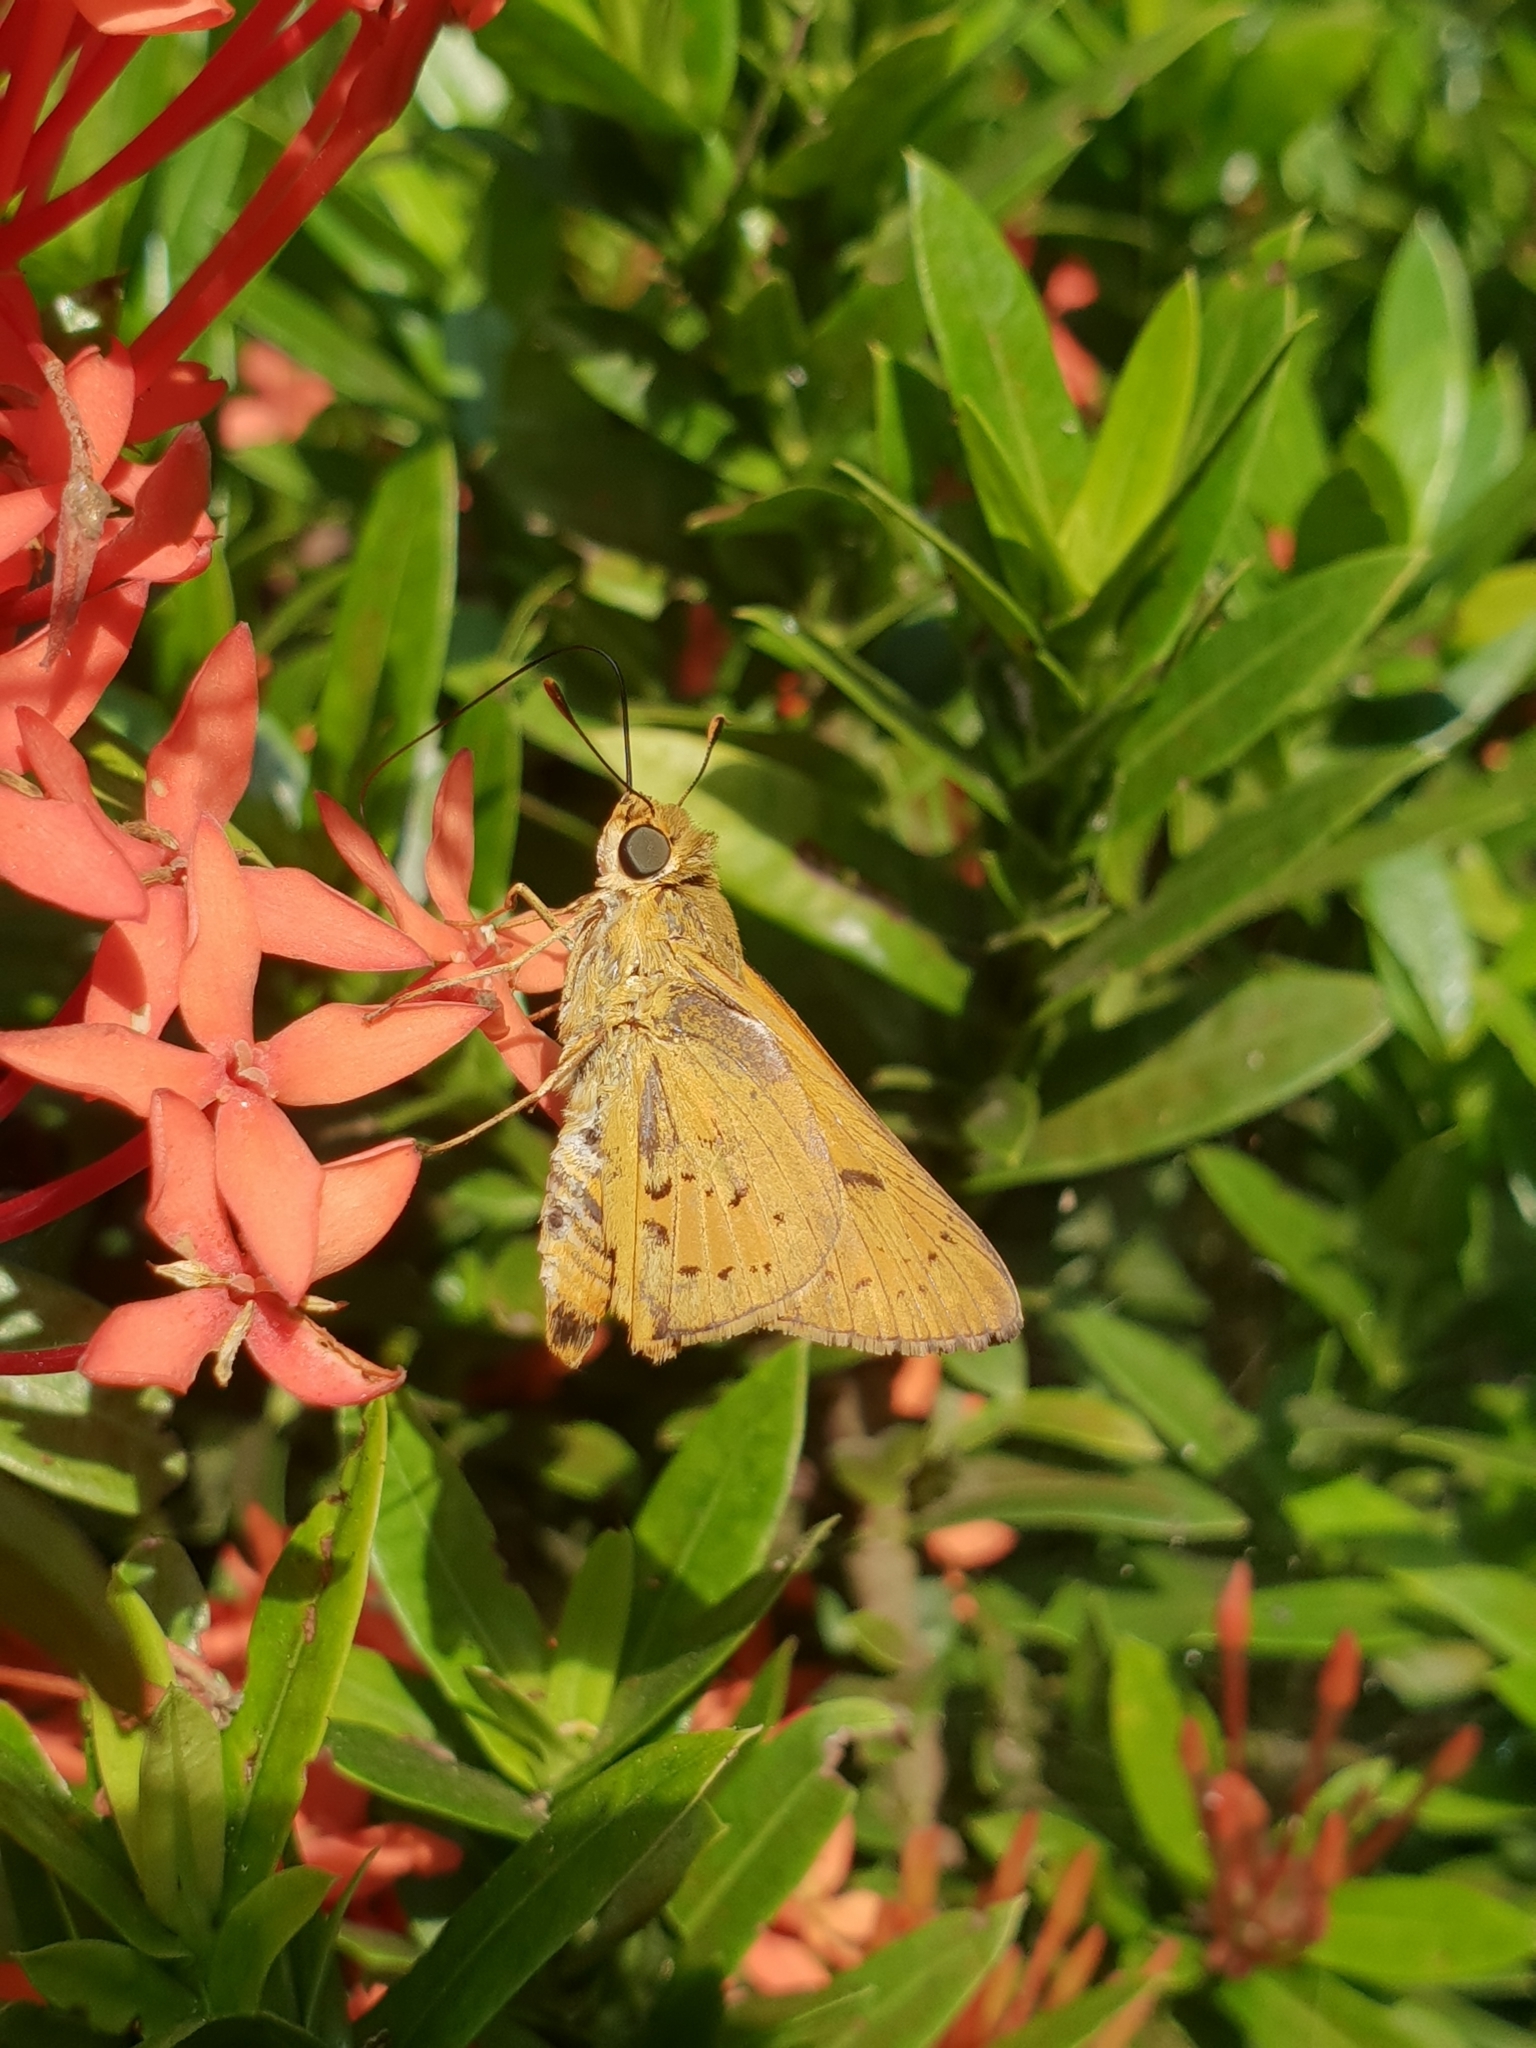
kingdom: Animalia
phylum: Arthropoda
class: Insecta
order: Lepidoptera
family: Hesperiidae
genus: Cephrenes
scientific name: Cephrenes trichopepla
